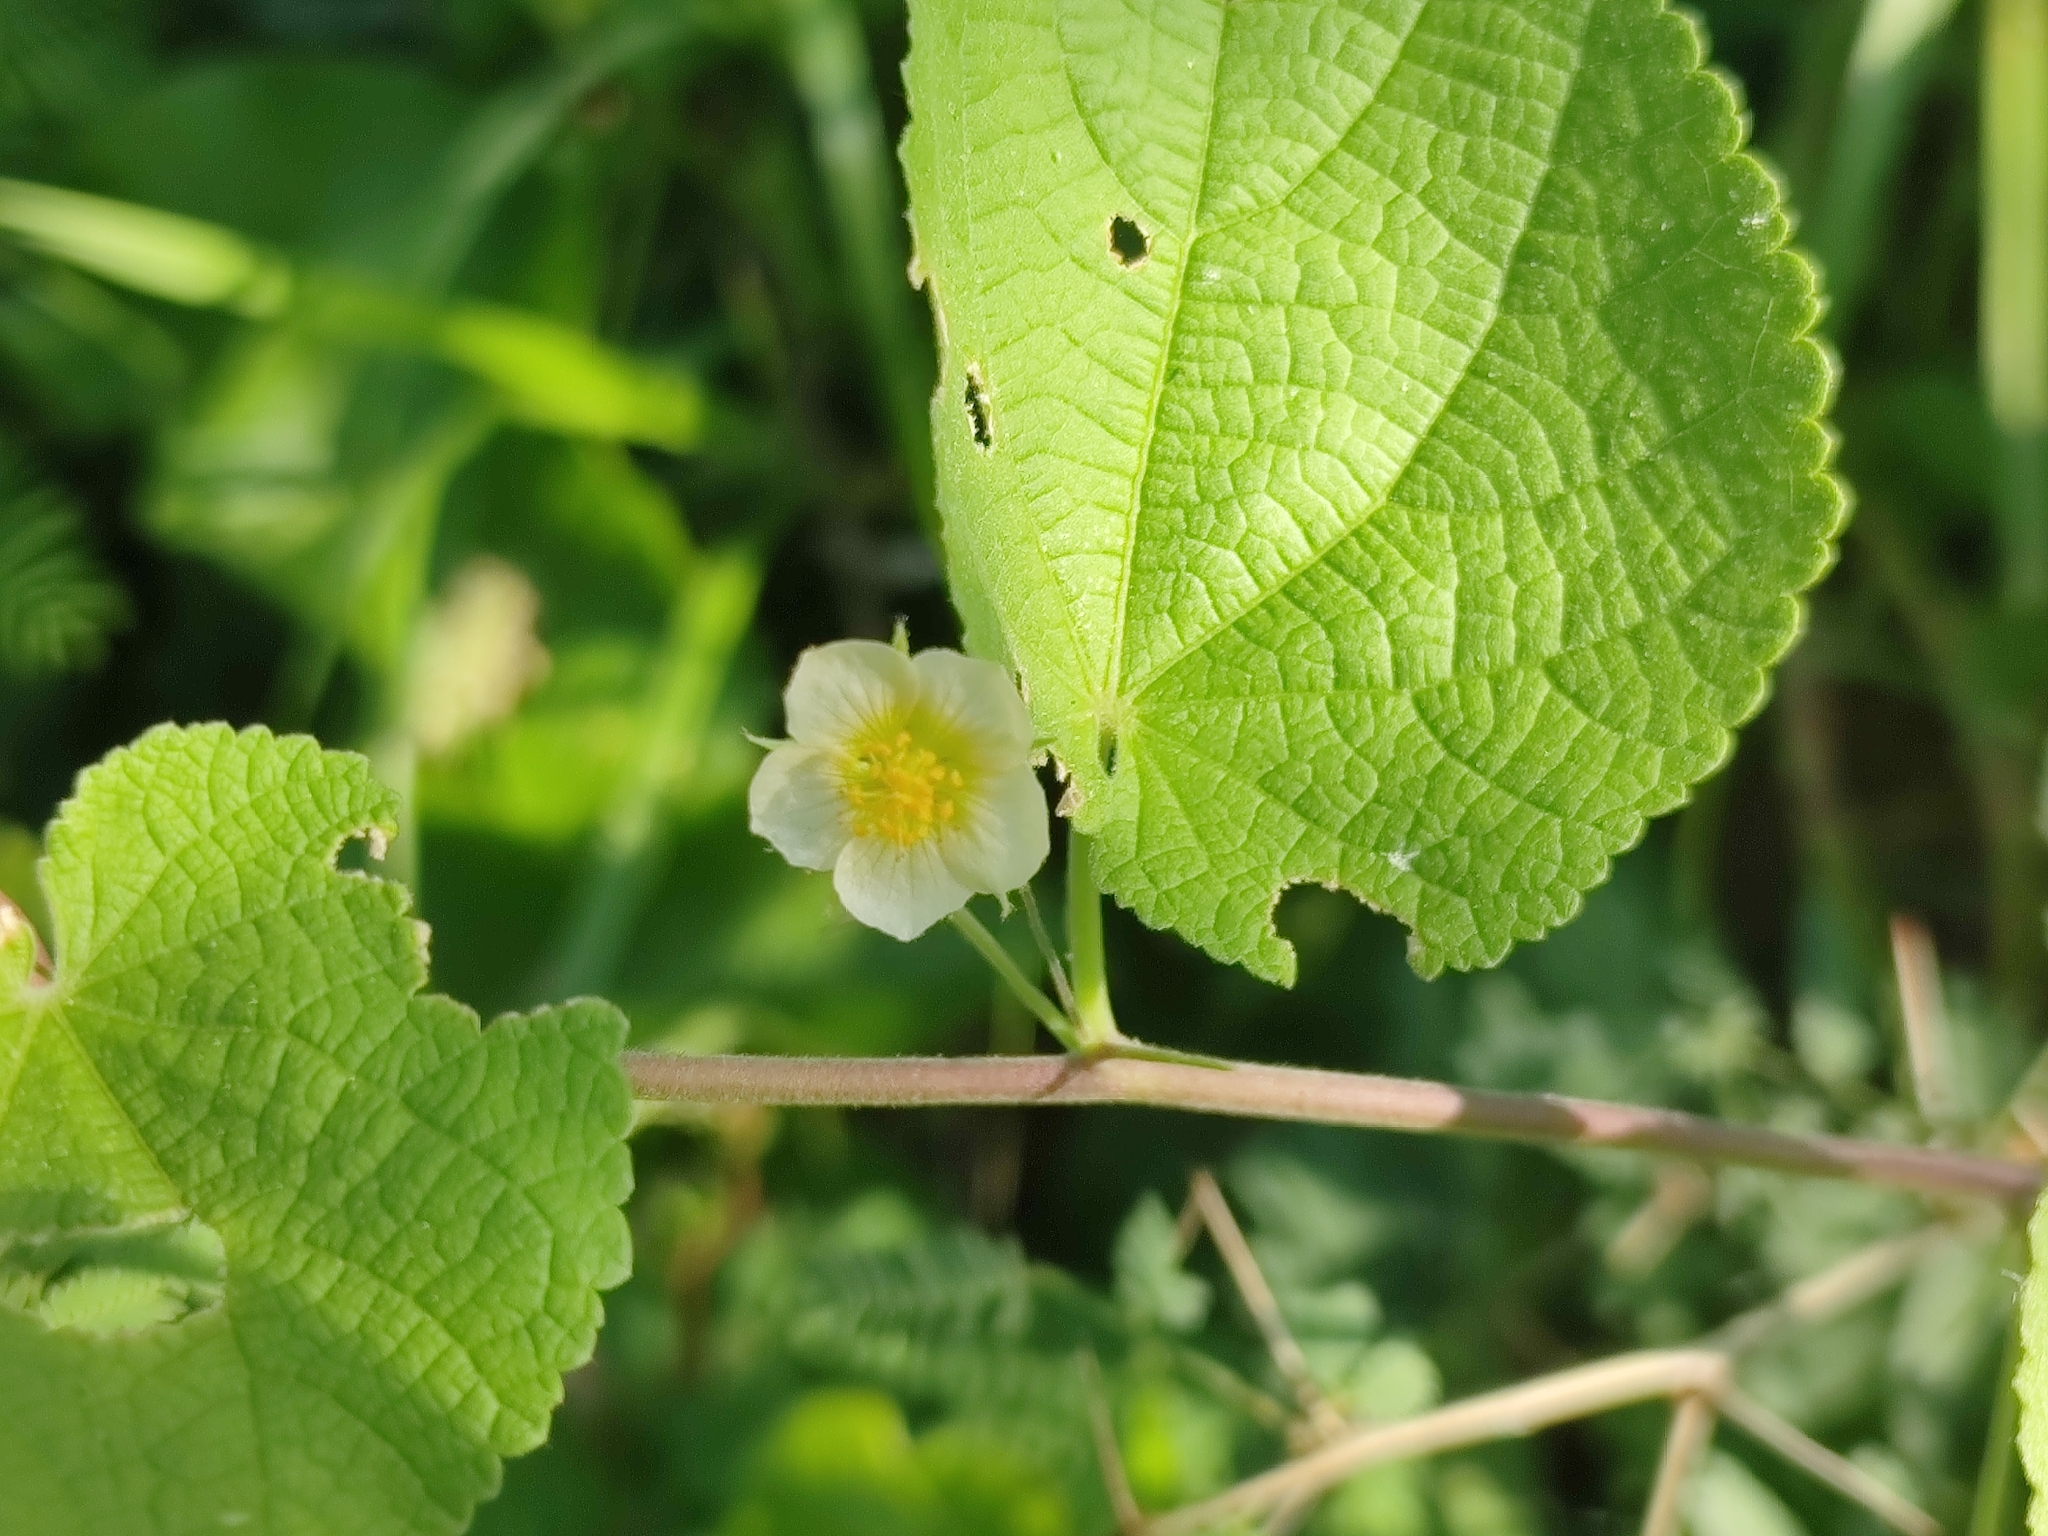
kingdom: Plantae
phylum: Tracheophyta
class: Magnoliopsida
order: Malvales
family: Malvaceae
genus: Herissantia
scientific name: Herissantia crispa
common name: Bladdermallow
